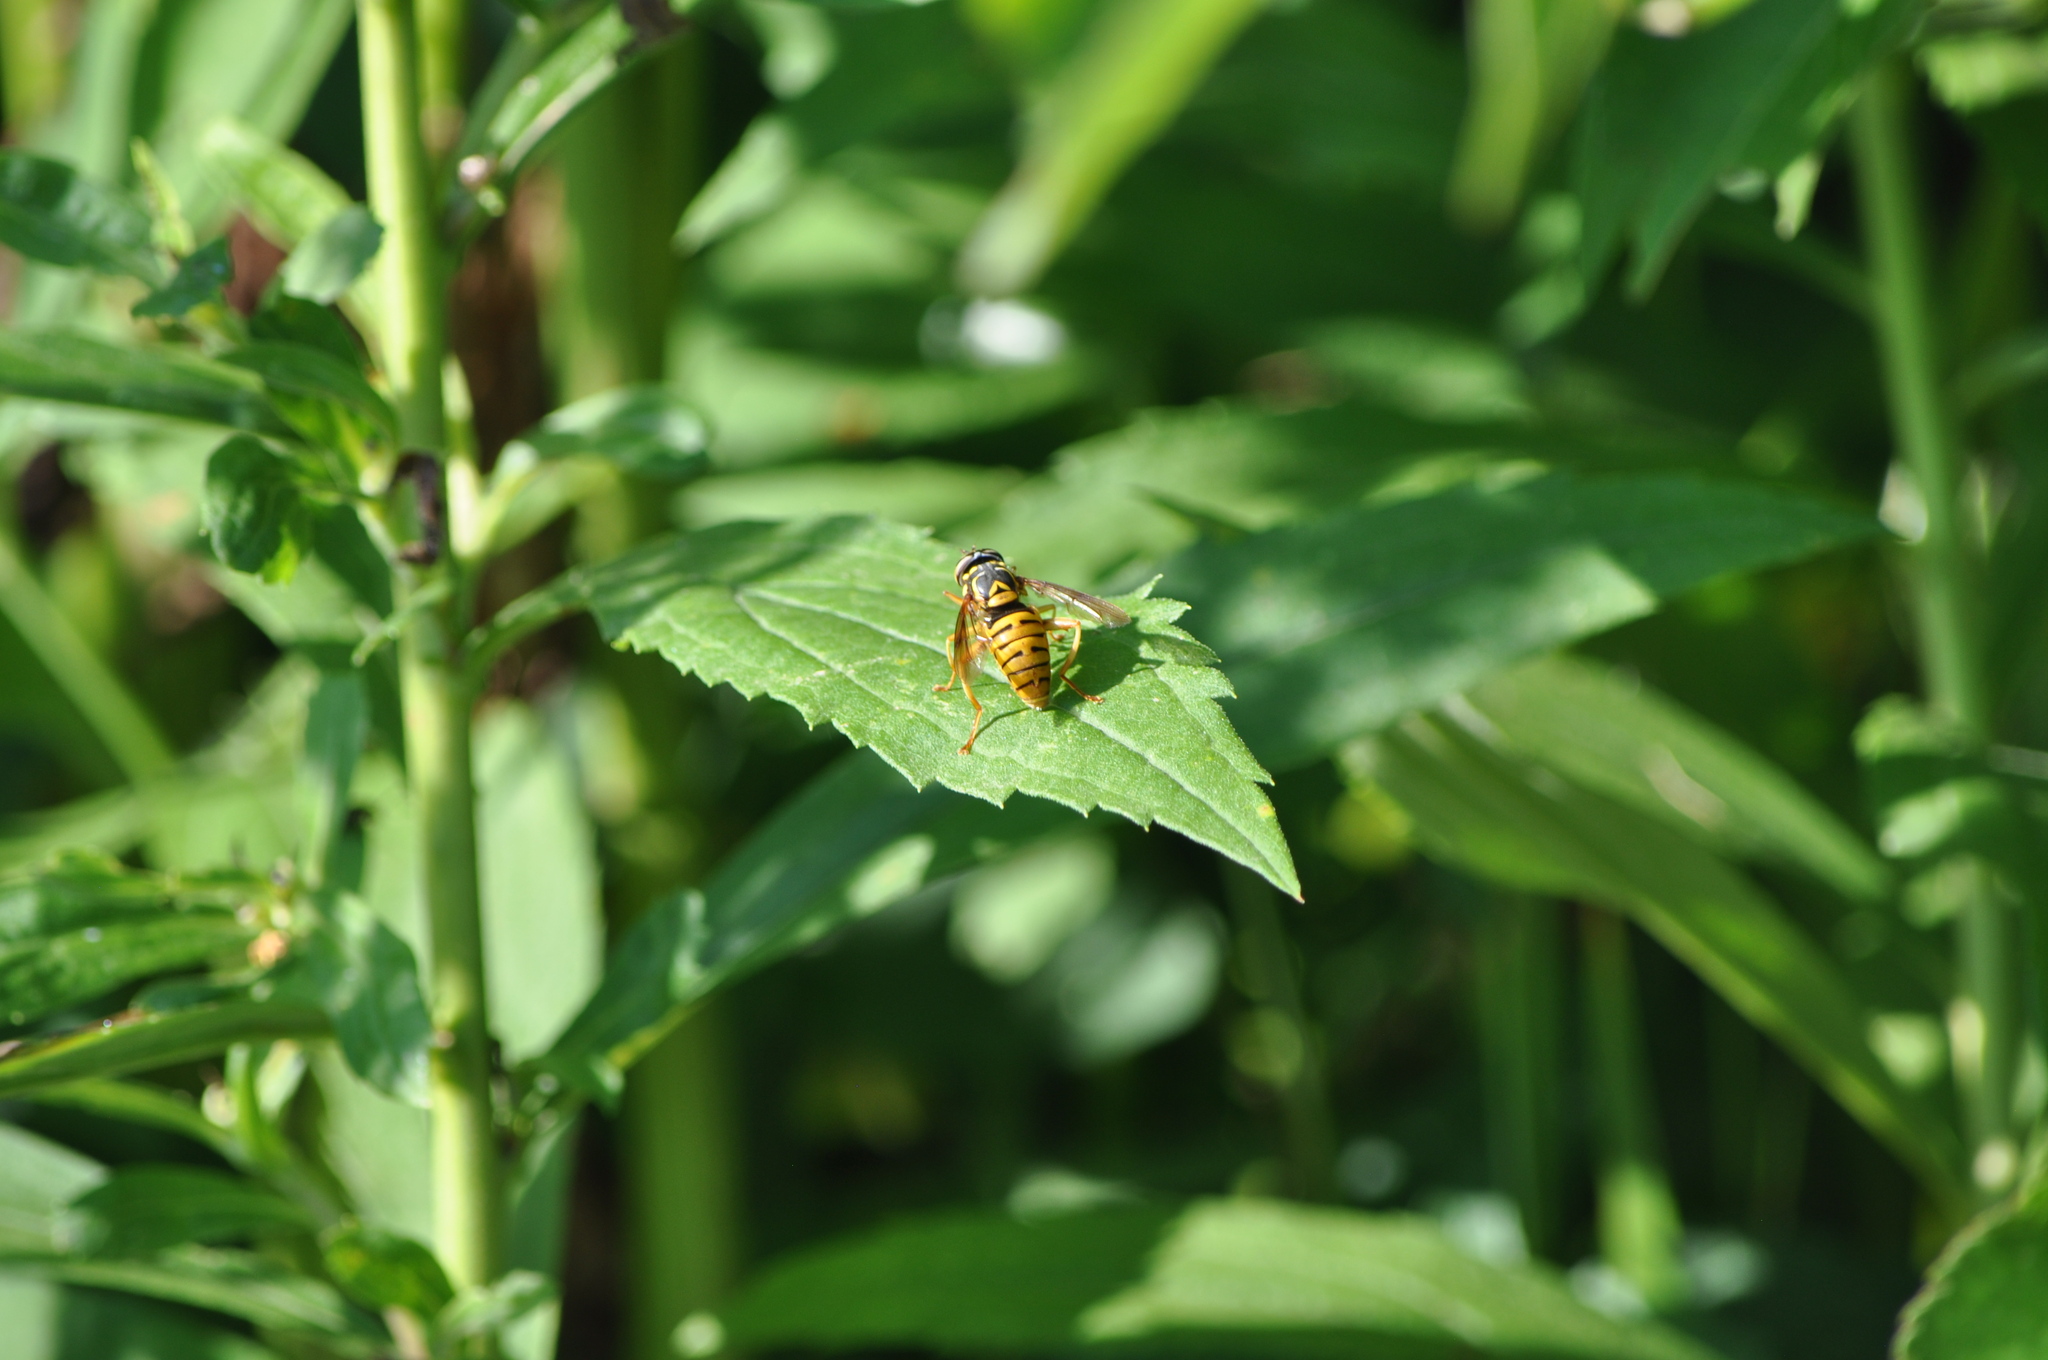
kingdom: Animalia
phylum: Arthropoda
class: Insecta
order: Diptera
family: Syrphidae
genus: Spilomyia
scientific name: Spilomyia
